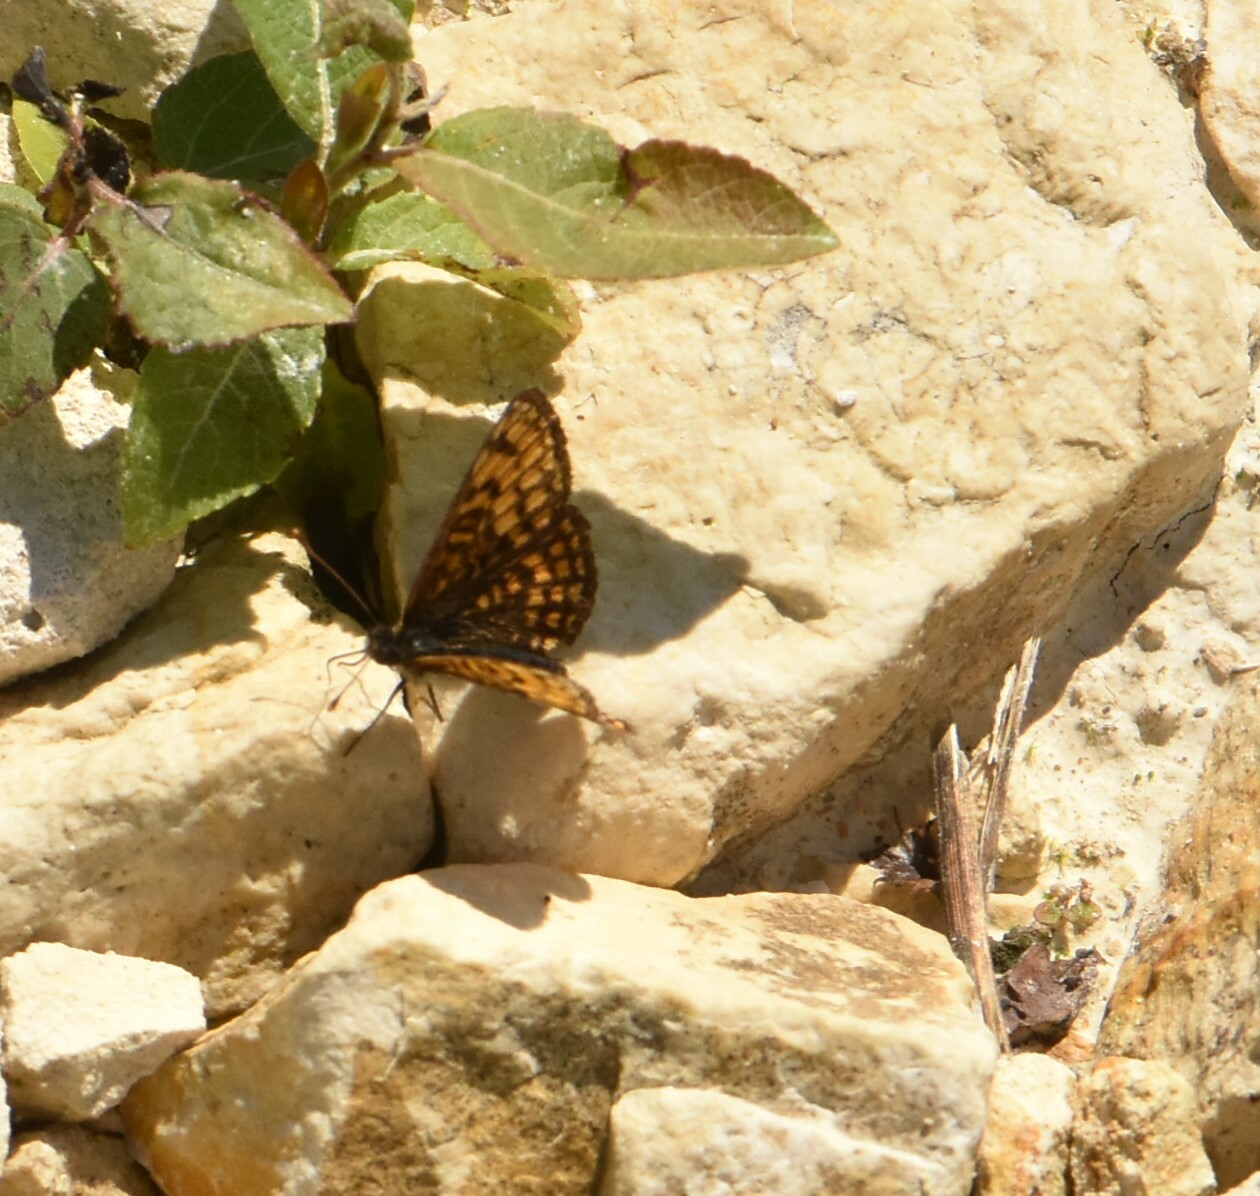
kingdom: Animalia
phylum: Arthropoda
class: Insecta
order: Lepidoptera
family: Nymphalidae
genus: Melitaea
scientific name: Melitaea athalia
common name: Heath fritillary
